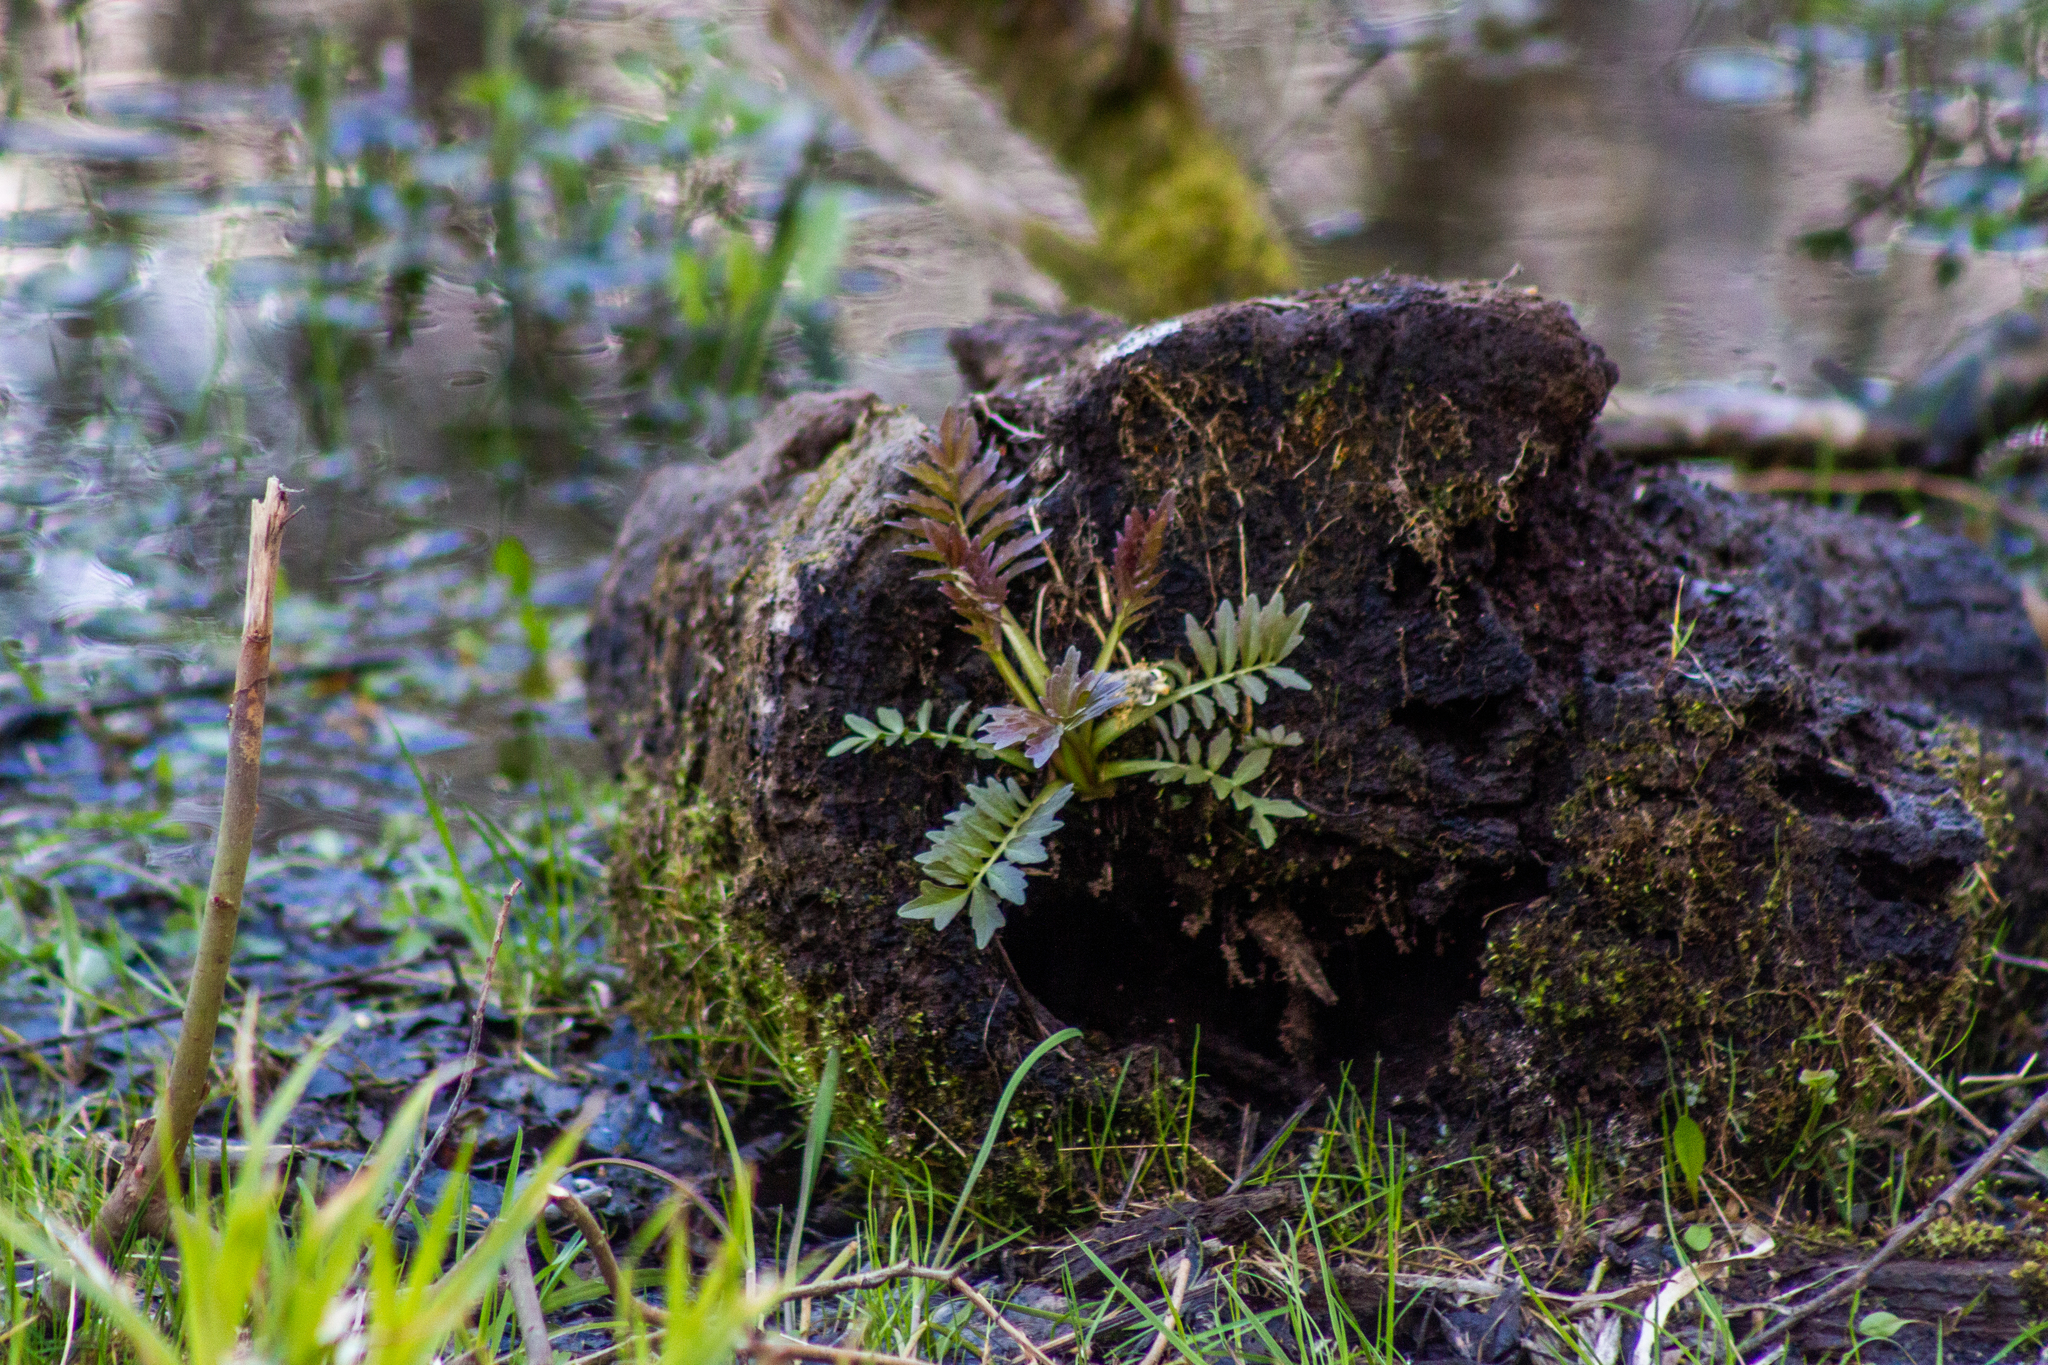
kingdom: Plantae
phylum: Tracheophyta
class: Magnoliopsida
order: Dipsacales
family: Caprifoliaceae
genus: Valeriana
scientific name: Valeriana officinalis
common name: Common valerian
